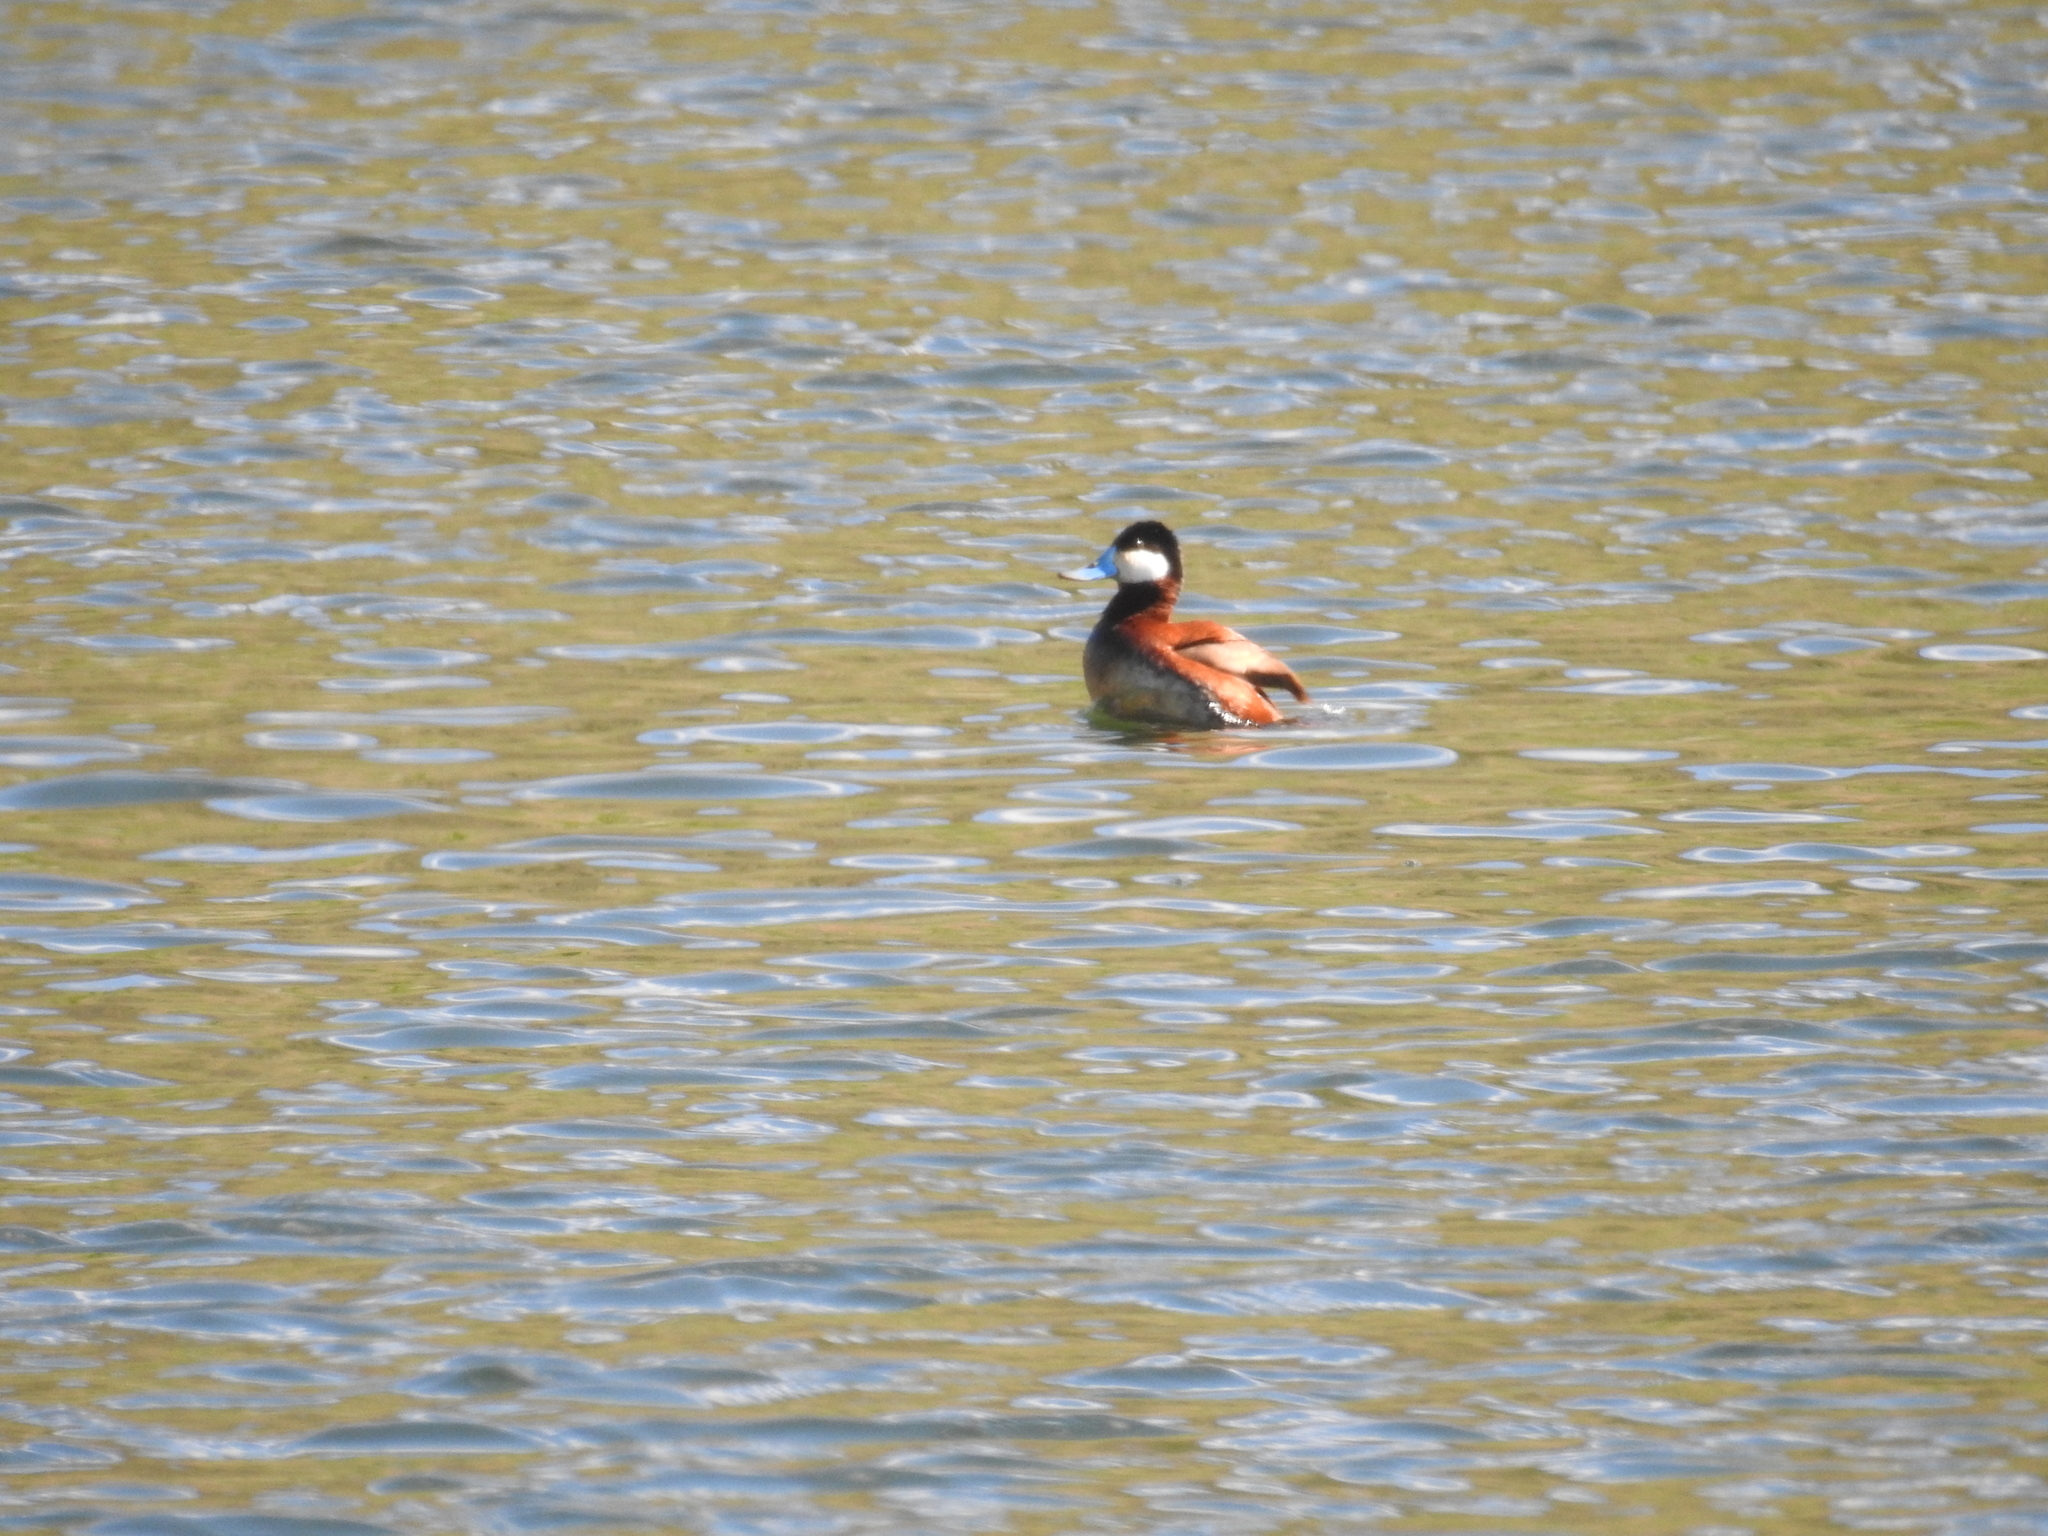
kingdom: Animalia
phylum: Chordata
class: Aves
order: Anseriformes
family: Anatidae
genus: Oxyura
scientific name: Oxyura jamaicensis
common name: Ruddy duck
